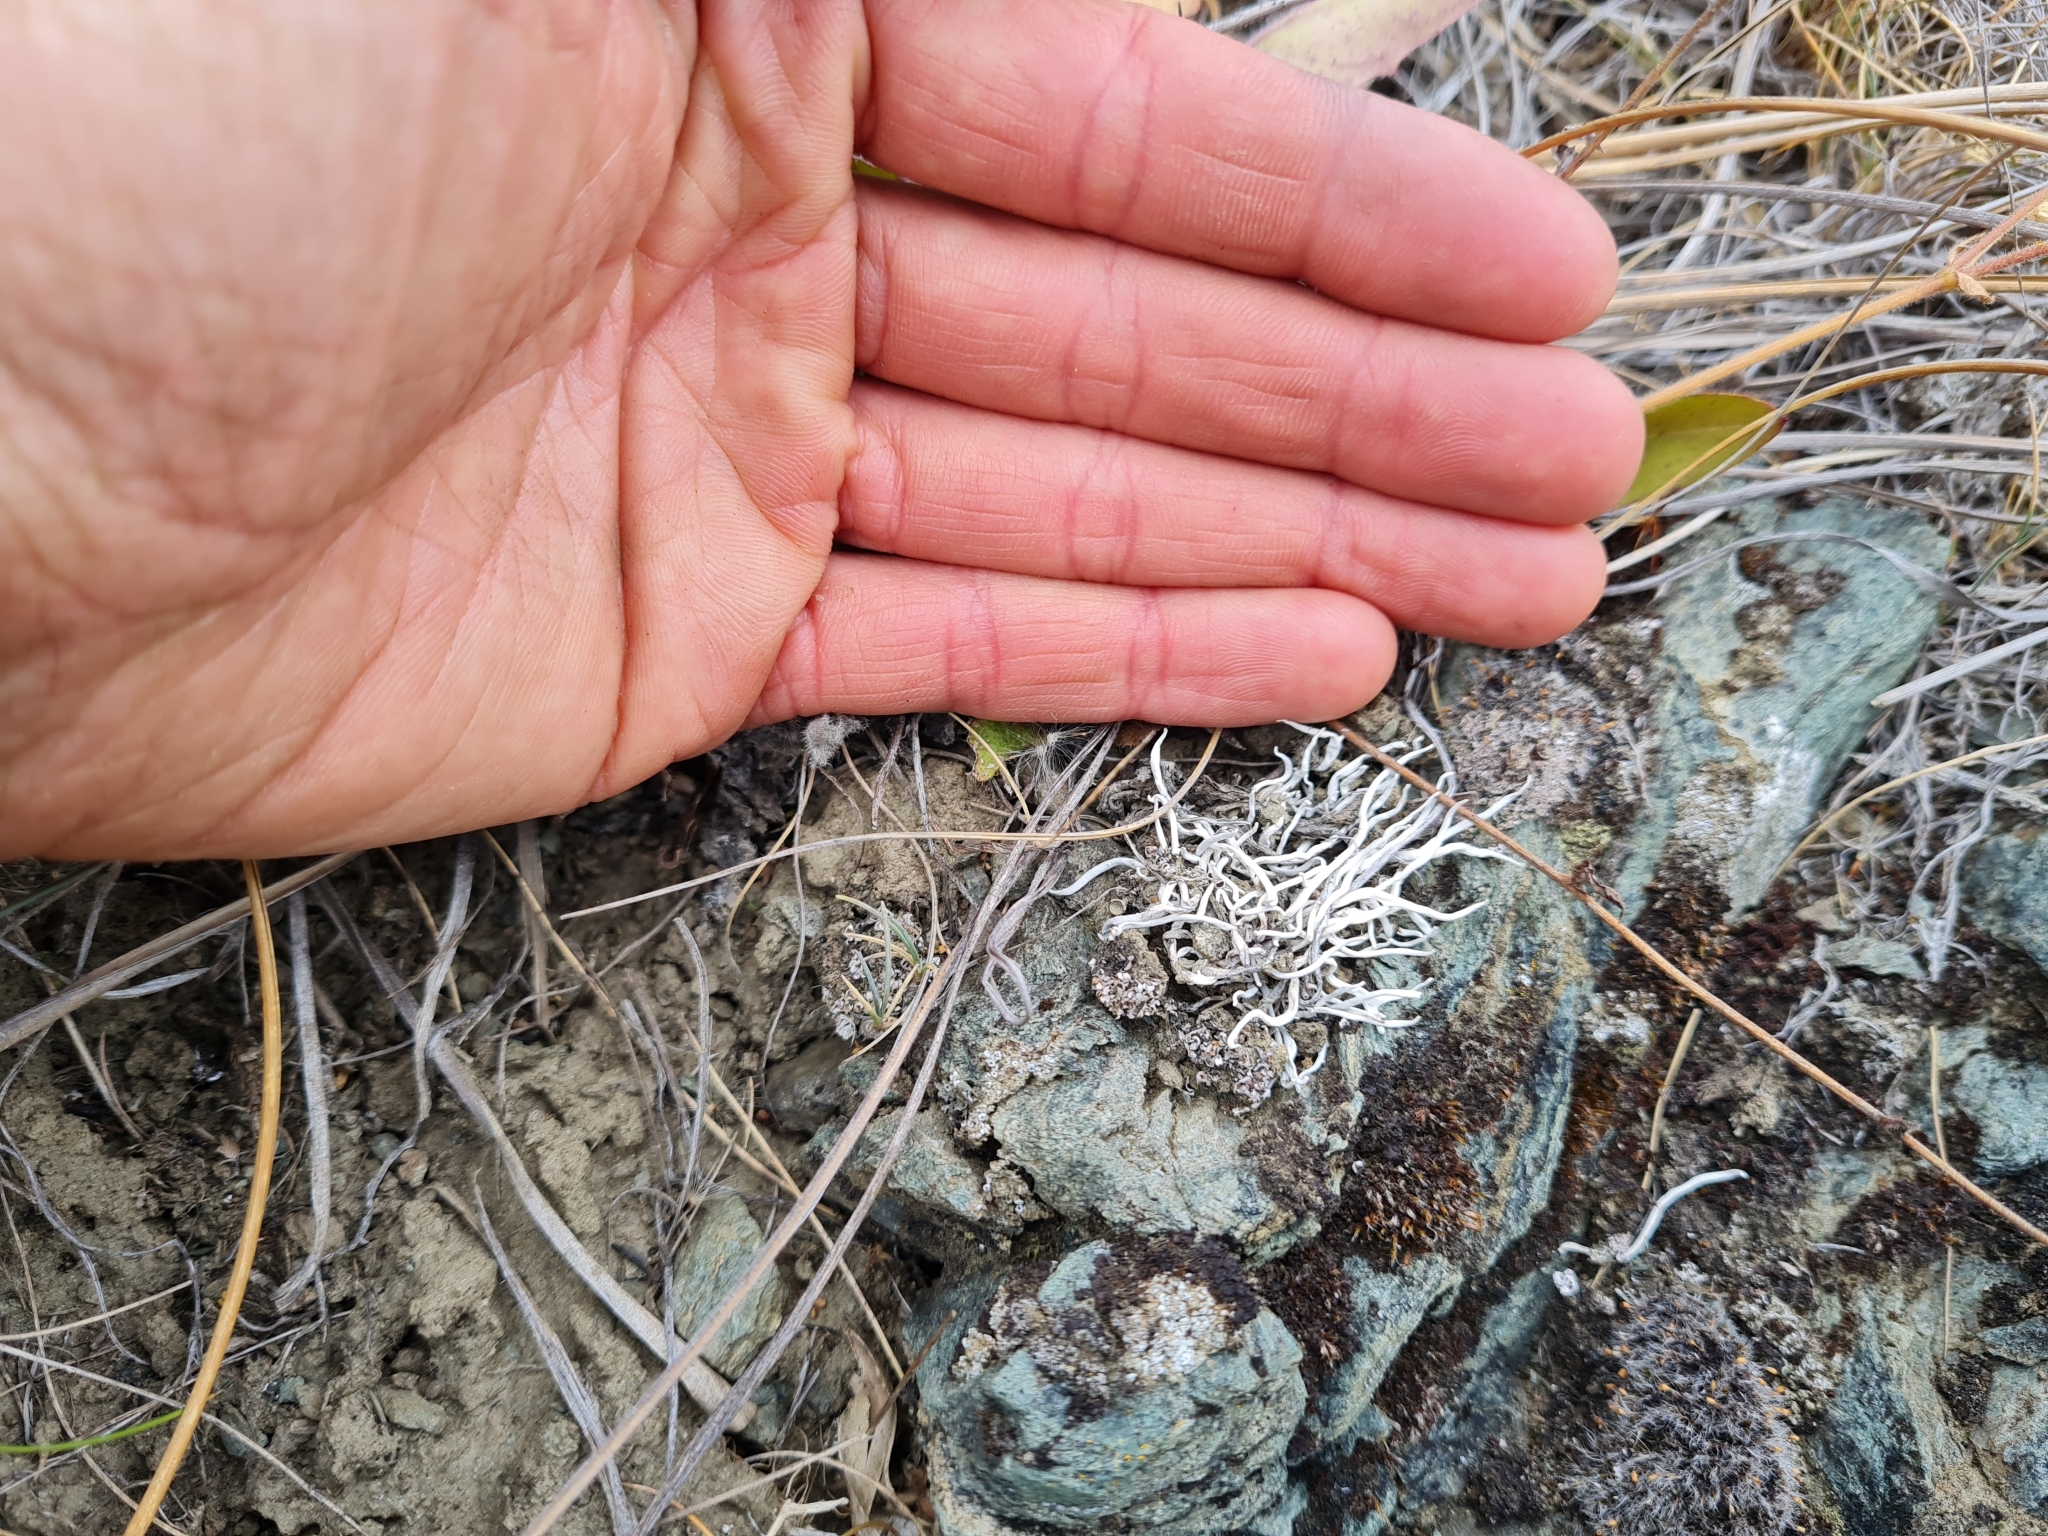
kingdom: Fungi
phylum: Ascomycota
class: Lecanoromycetes
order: Pertusariales
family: Icmadophilaceae
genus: Thamnolia
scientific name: Thamnolia vermicularis
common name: Whiteworm lichen
